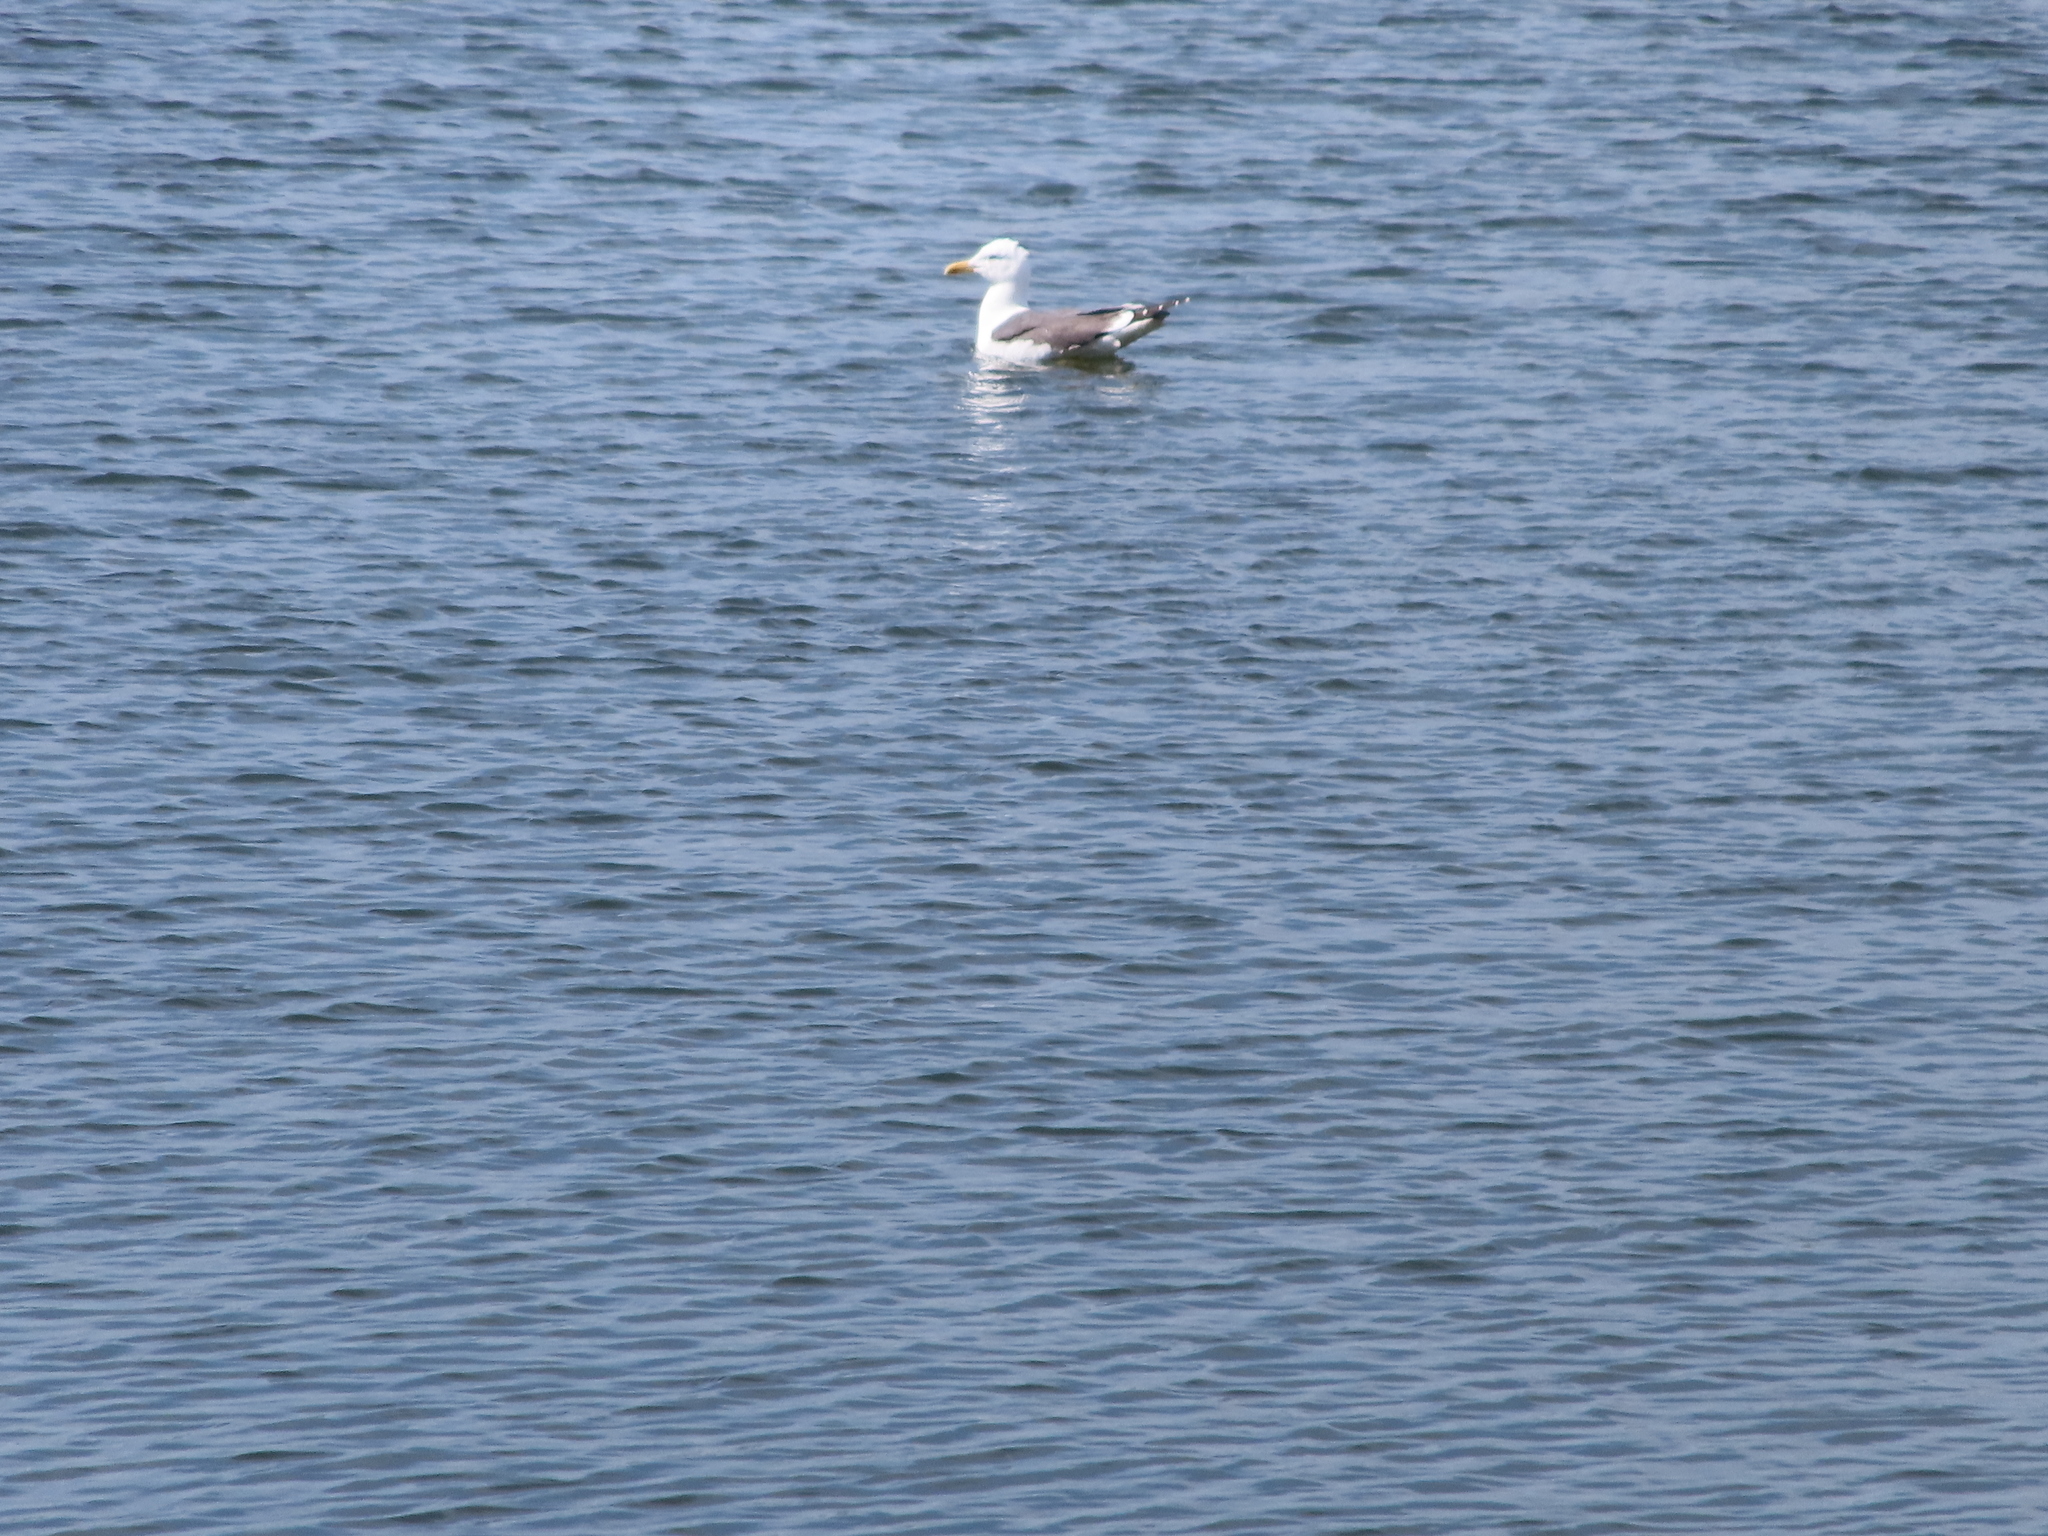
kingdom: Animalia
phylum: Chordata
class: Aves
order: Charadriiformes
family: Laridae
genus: Larus
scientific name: Larus fuscus
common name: Lesser black-backed gull
